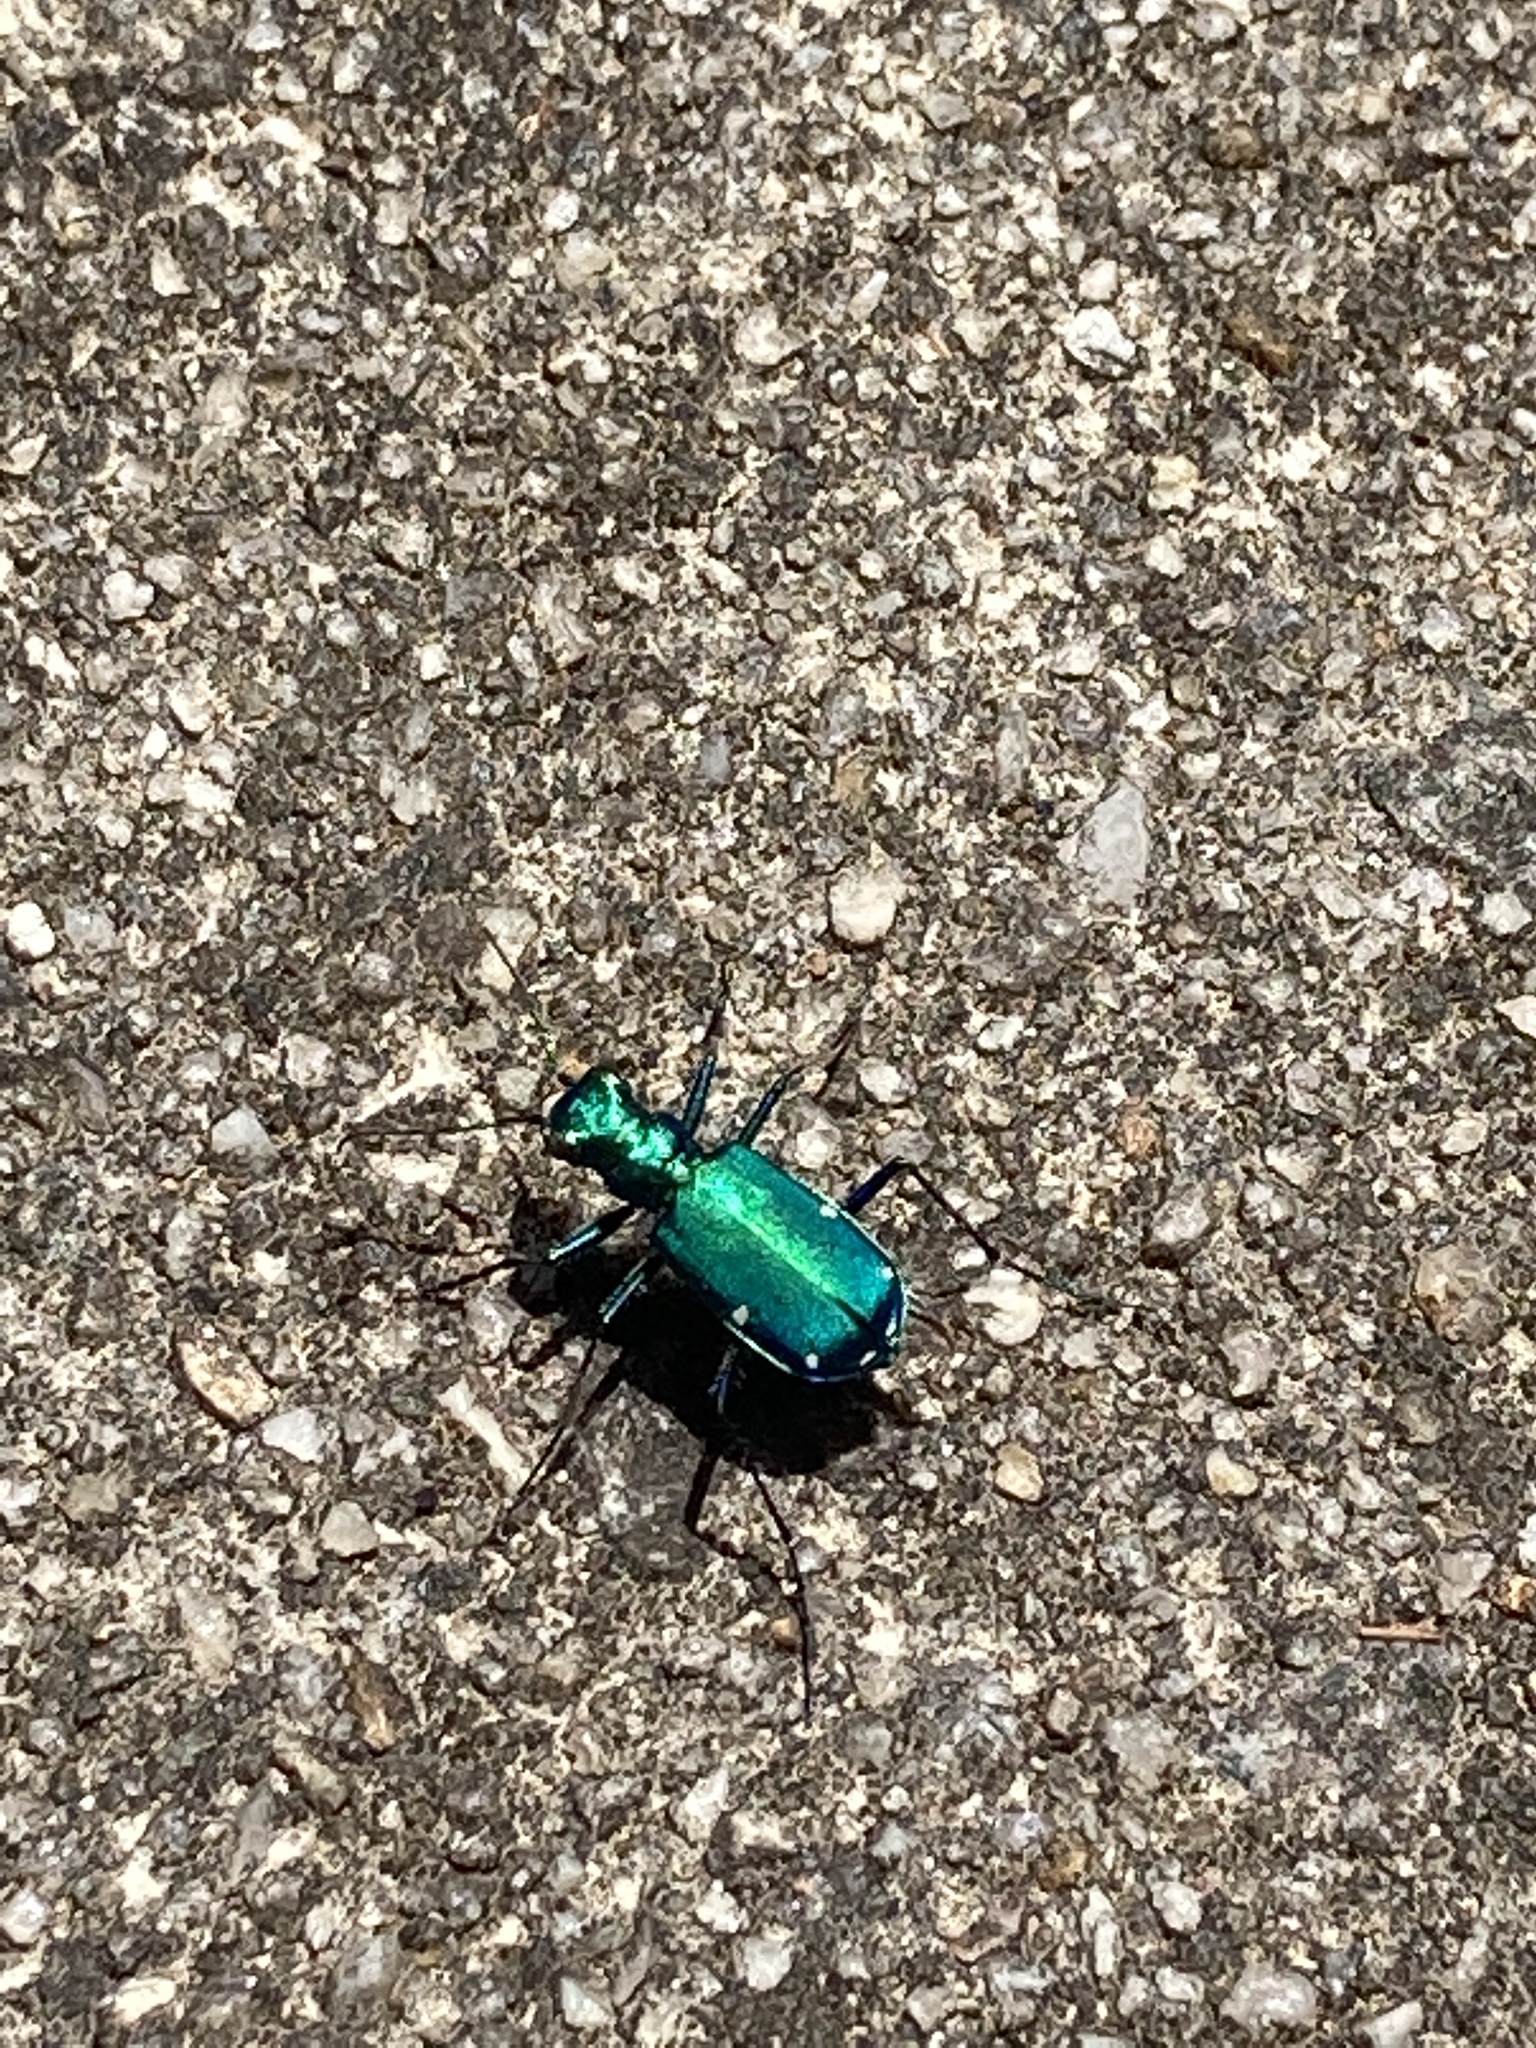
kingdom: Animalia
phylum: Arthropoda
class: Insecta
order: Coleoptera
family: Carabidae
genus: Cicindela
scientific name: Cicindela sexguttata
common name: Six-spotted tiger beetle
